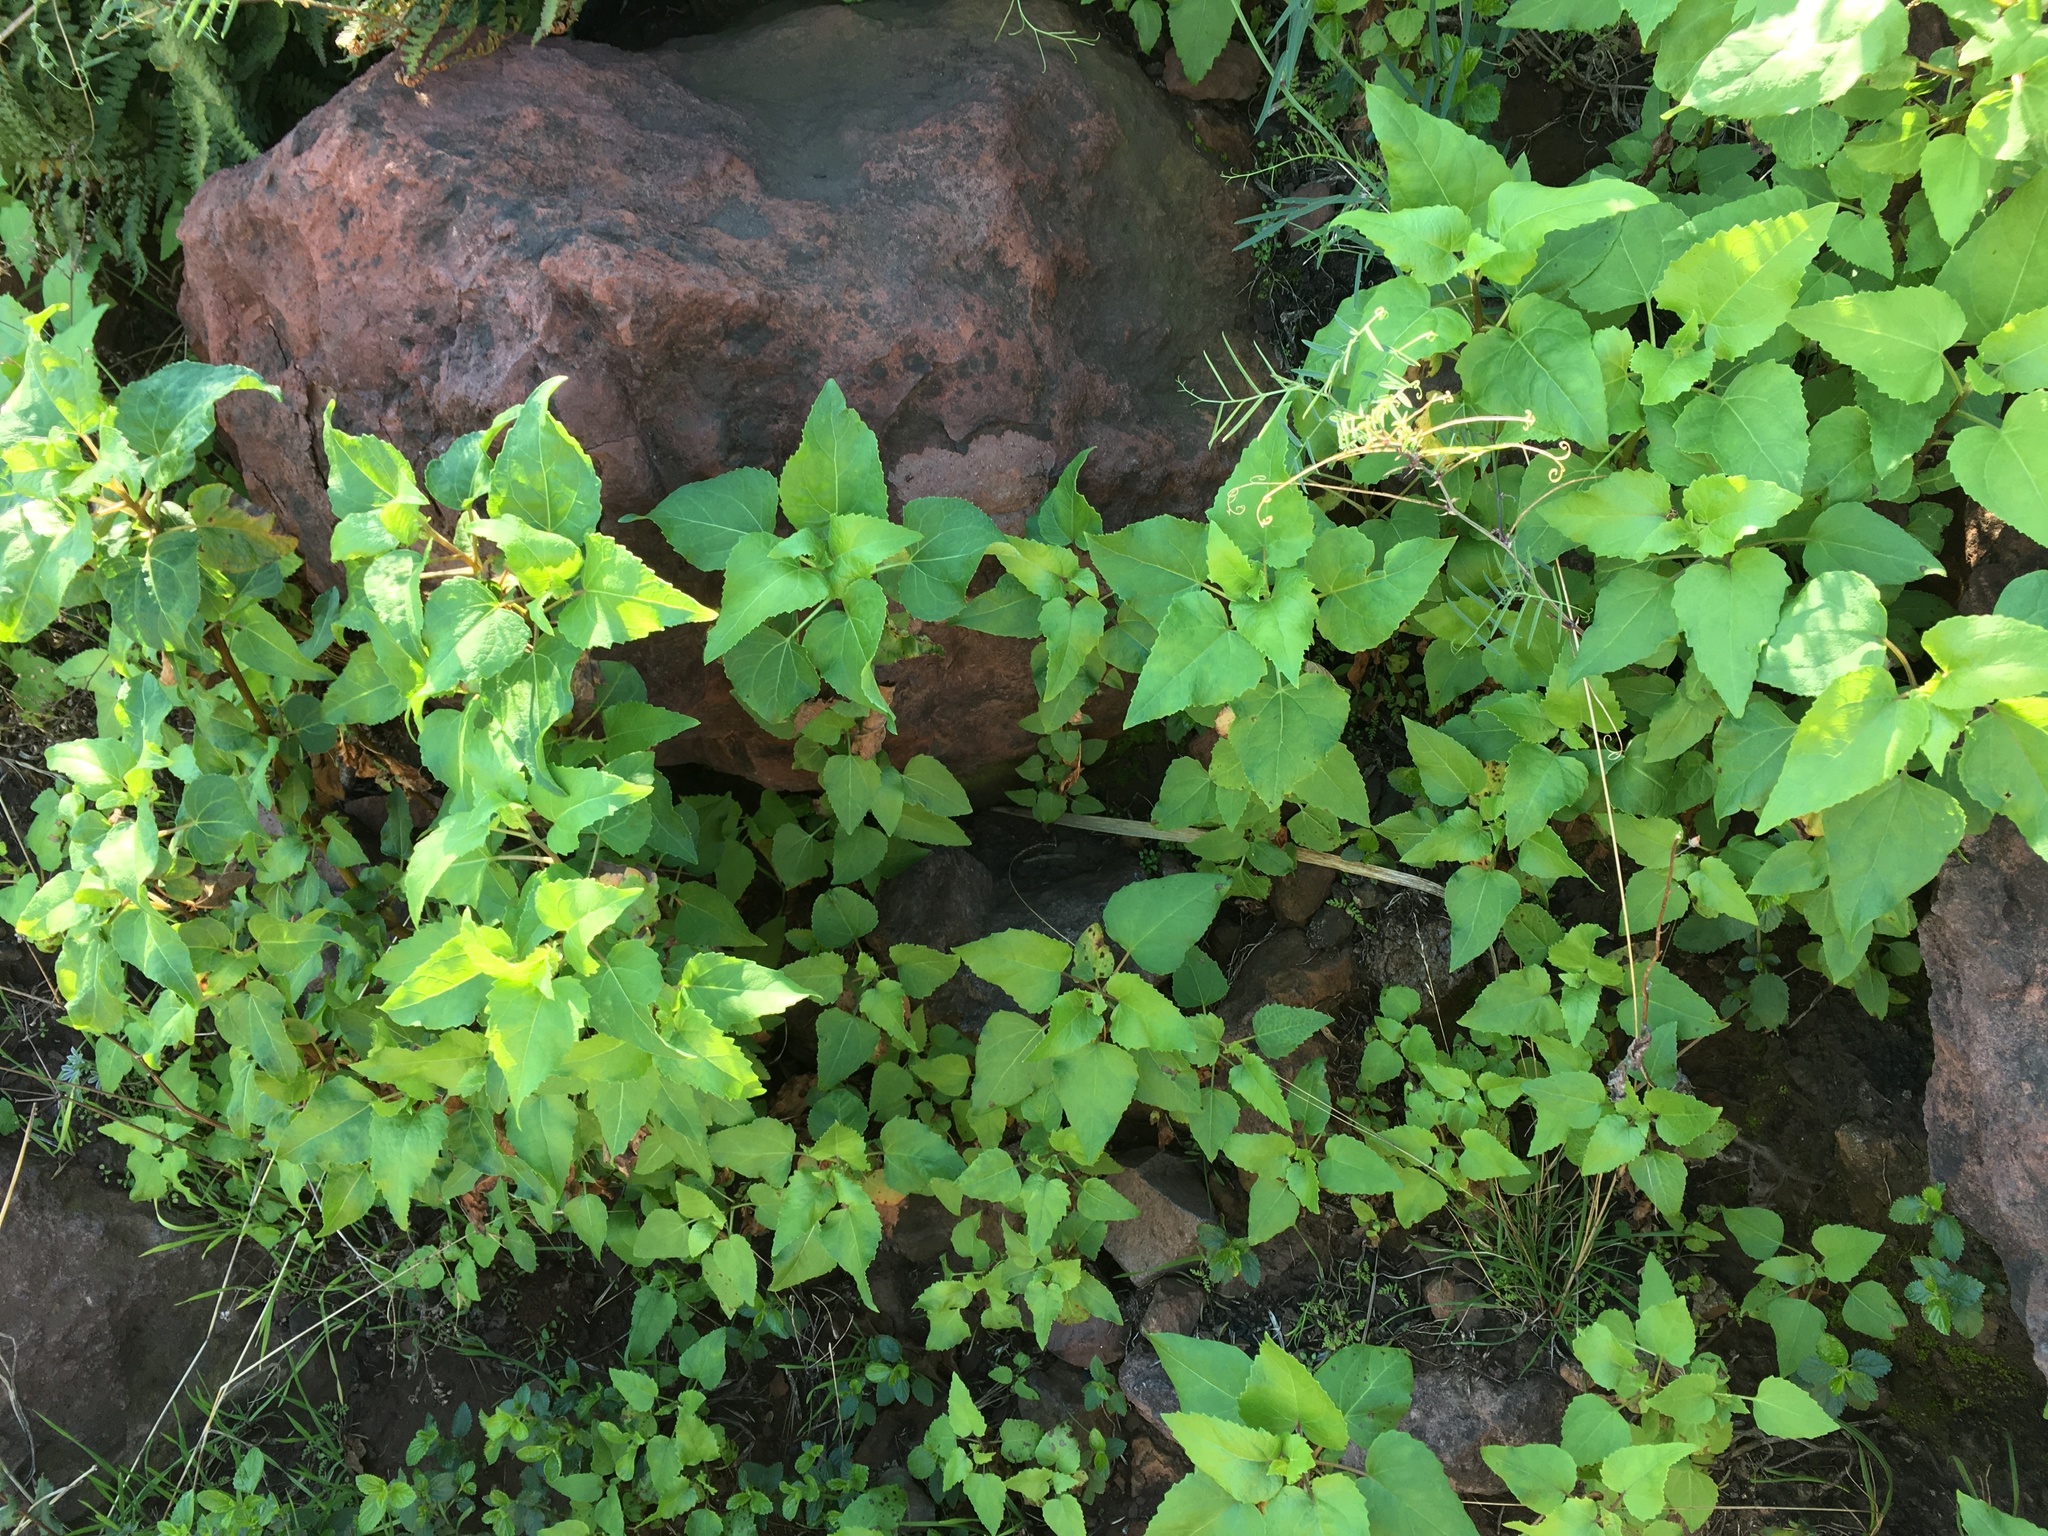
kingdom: Plantae
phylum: Tracheophyta
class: Magnoliopsida
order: Asterales
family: Asteraceae
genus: Venegasia
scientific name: Venegasia carpesioides
